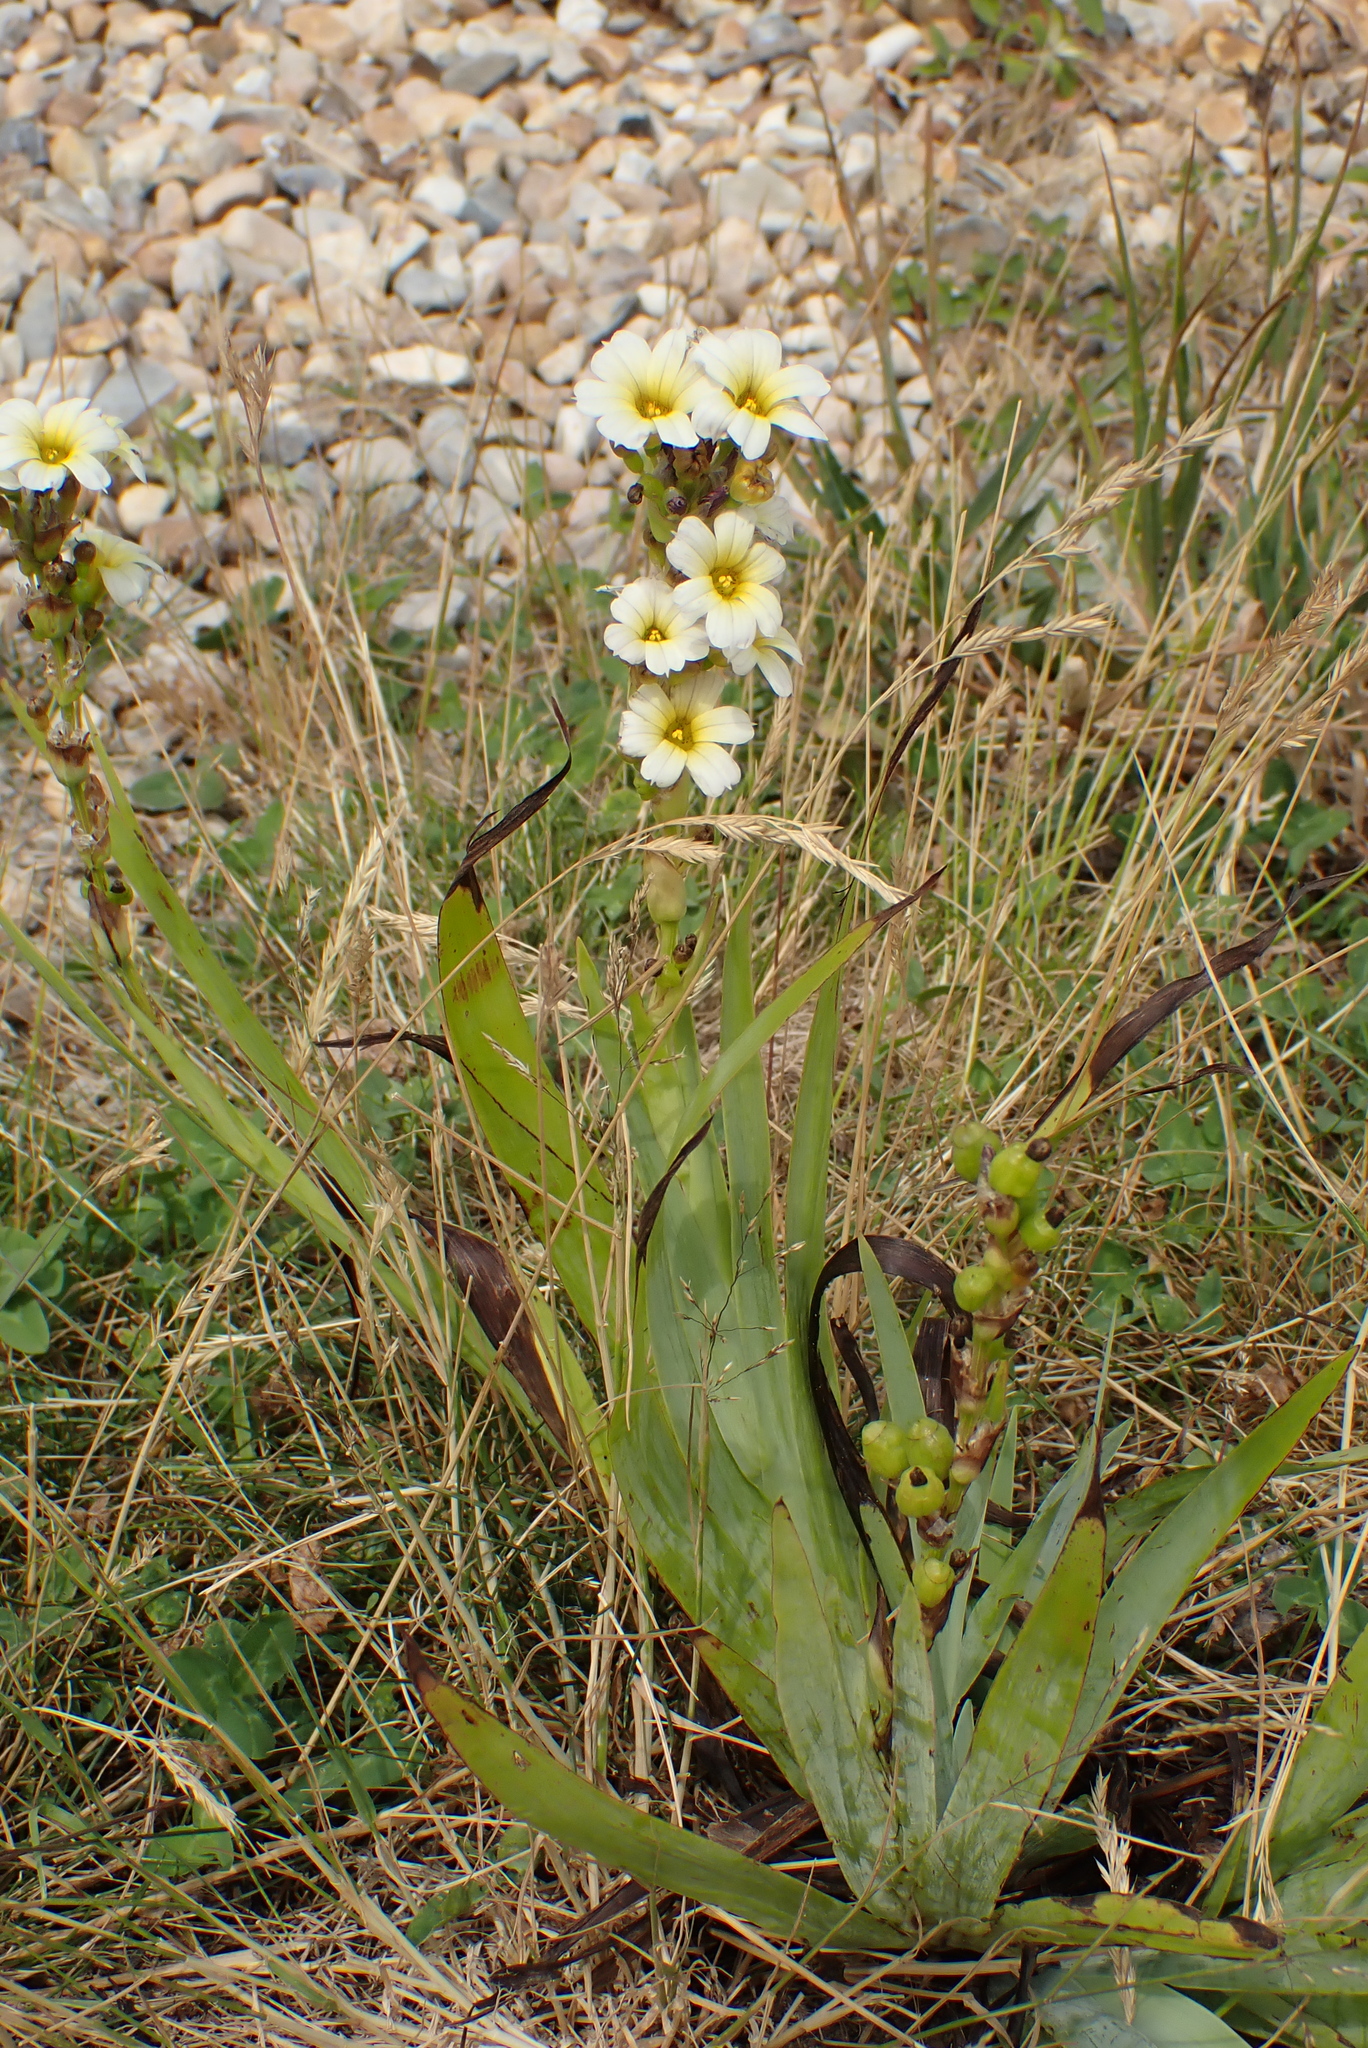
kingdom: Plantae
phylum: Tracheophyta
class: Liliopsida
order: Asparagales
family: Iridaceae
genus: Sisyrinchium
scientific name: Sisyrinchium striatum
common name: Pale yellow-eyed-grass
